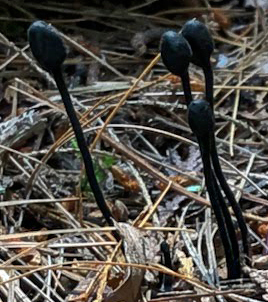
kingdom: Fungi
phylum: Ascomycota
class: Geoglossomycetes
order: Geoglossales
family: Geoglossaceae
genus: Trichoglossum
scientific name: Trichoglossum hirsutum
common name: Hairy earthtongue
